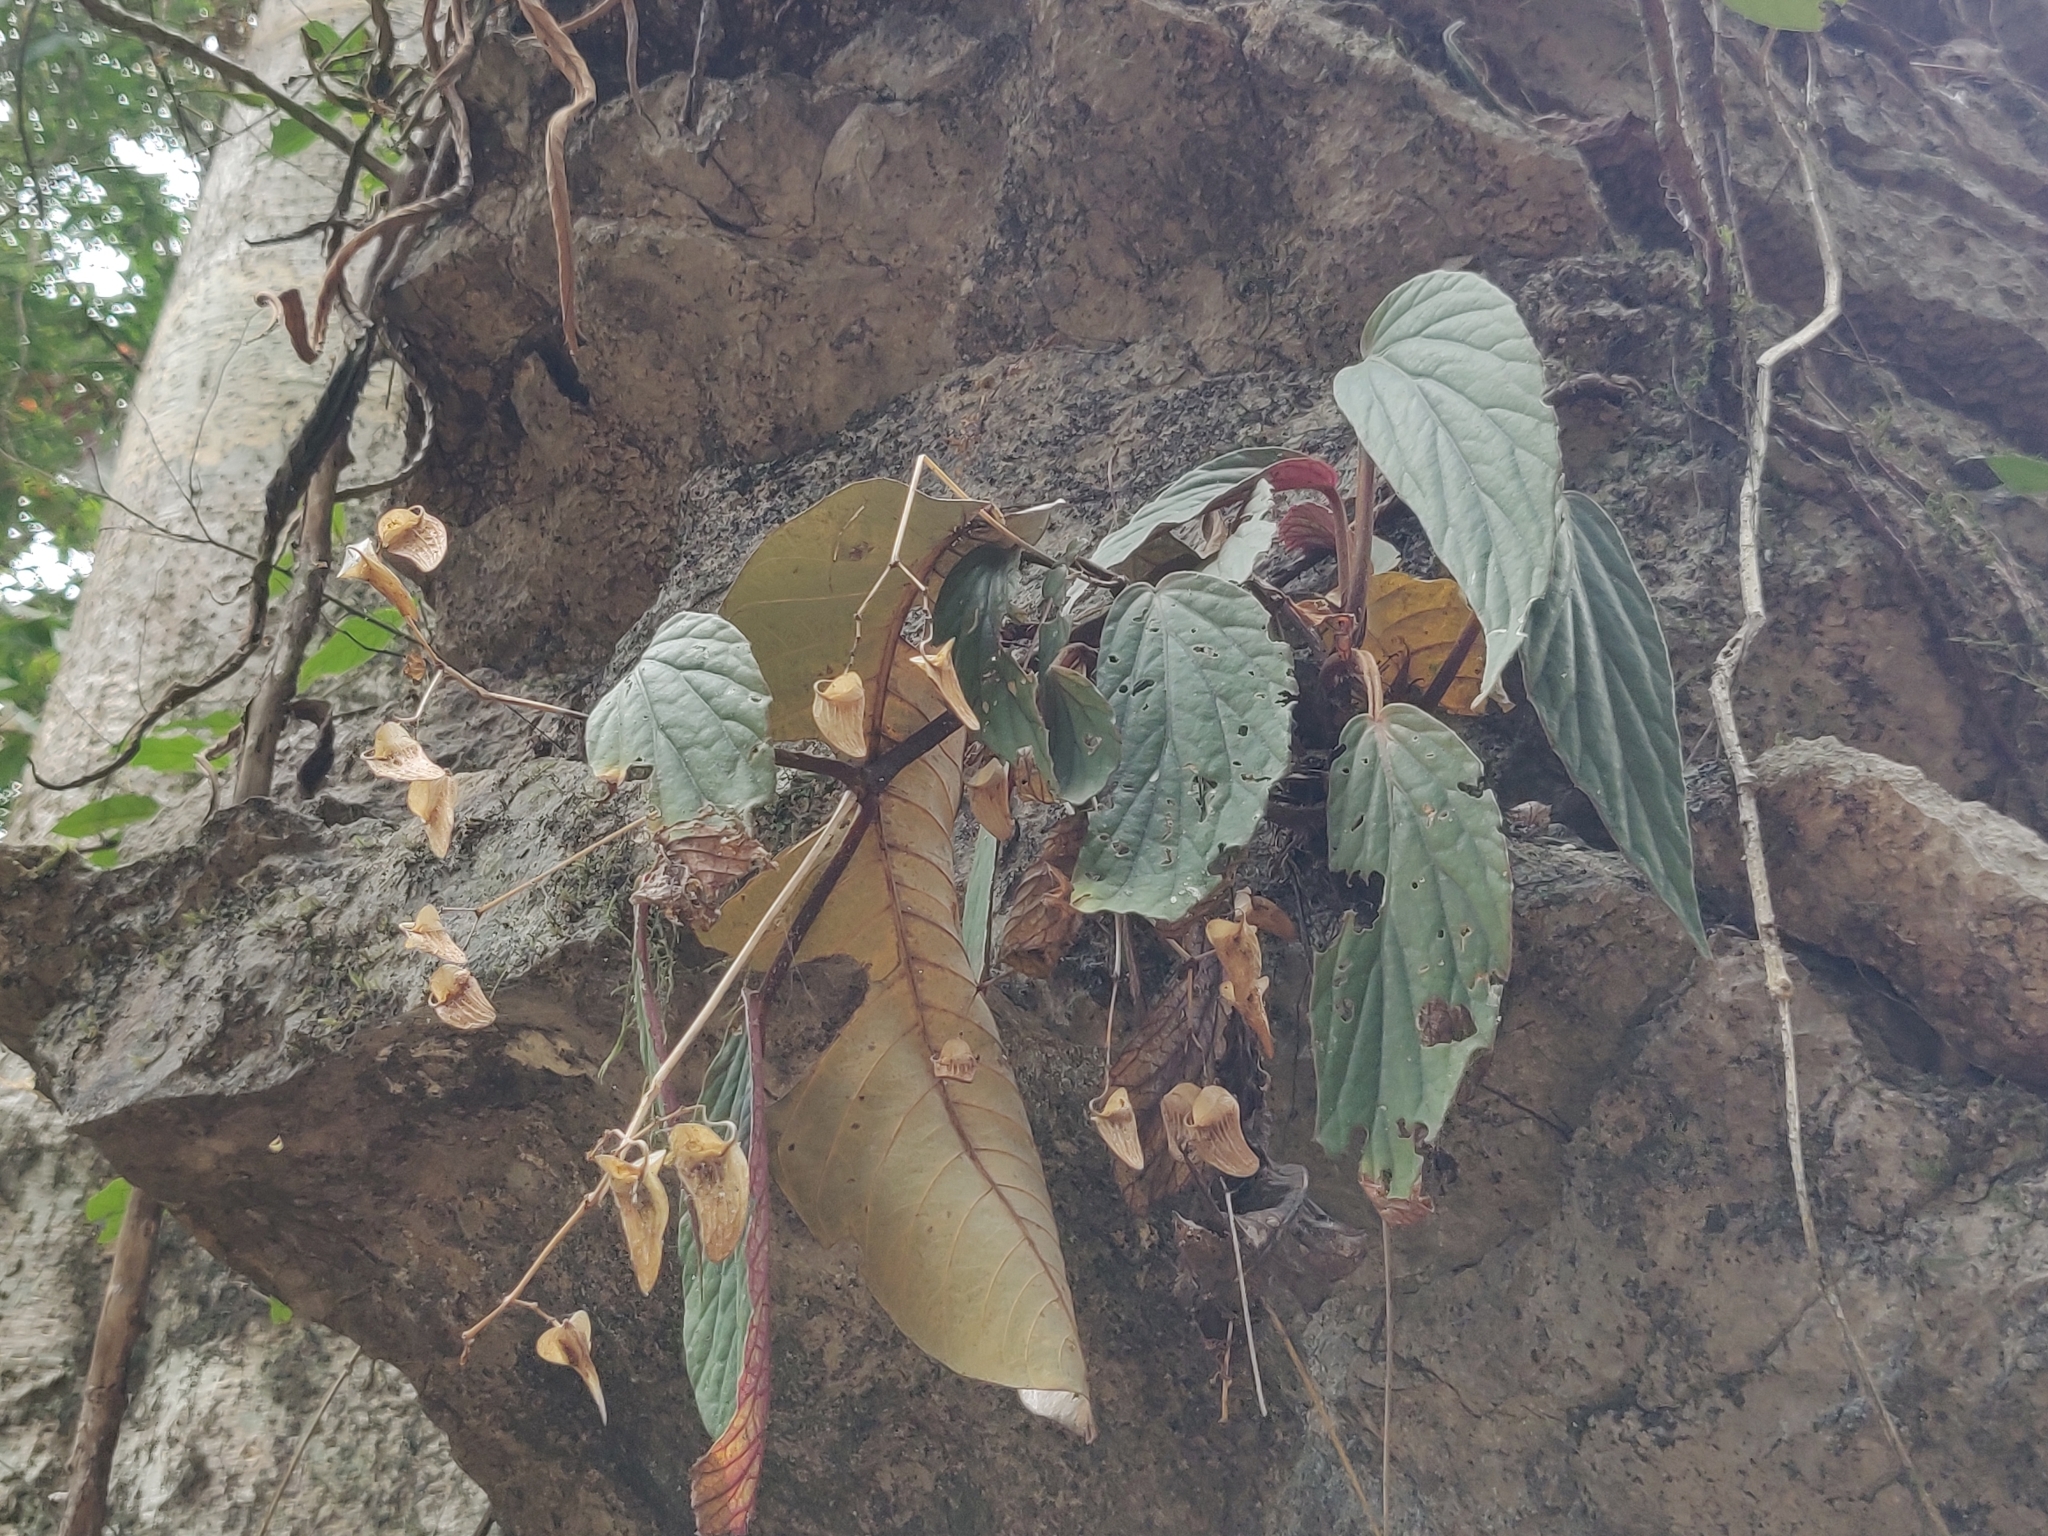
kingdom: Plantae
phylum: Tracheophyta
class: Magnoliopsida
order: Cucurbitales
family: Begoniaceae
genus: Begonia
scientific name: Begonia hatacoa
